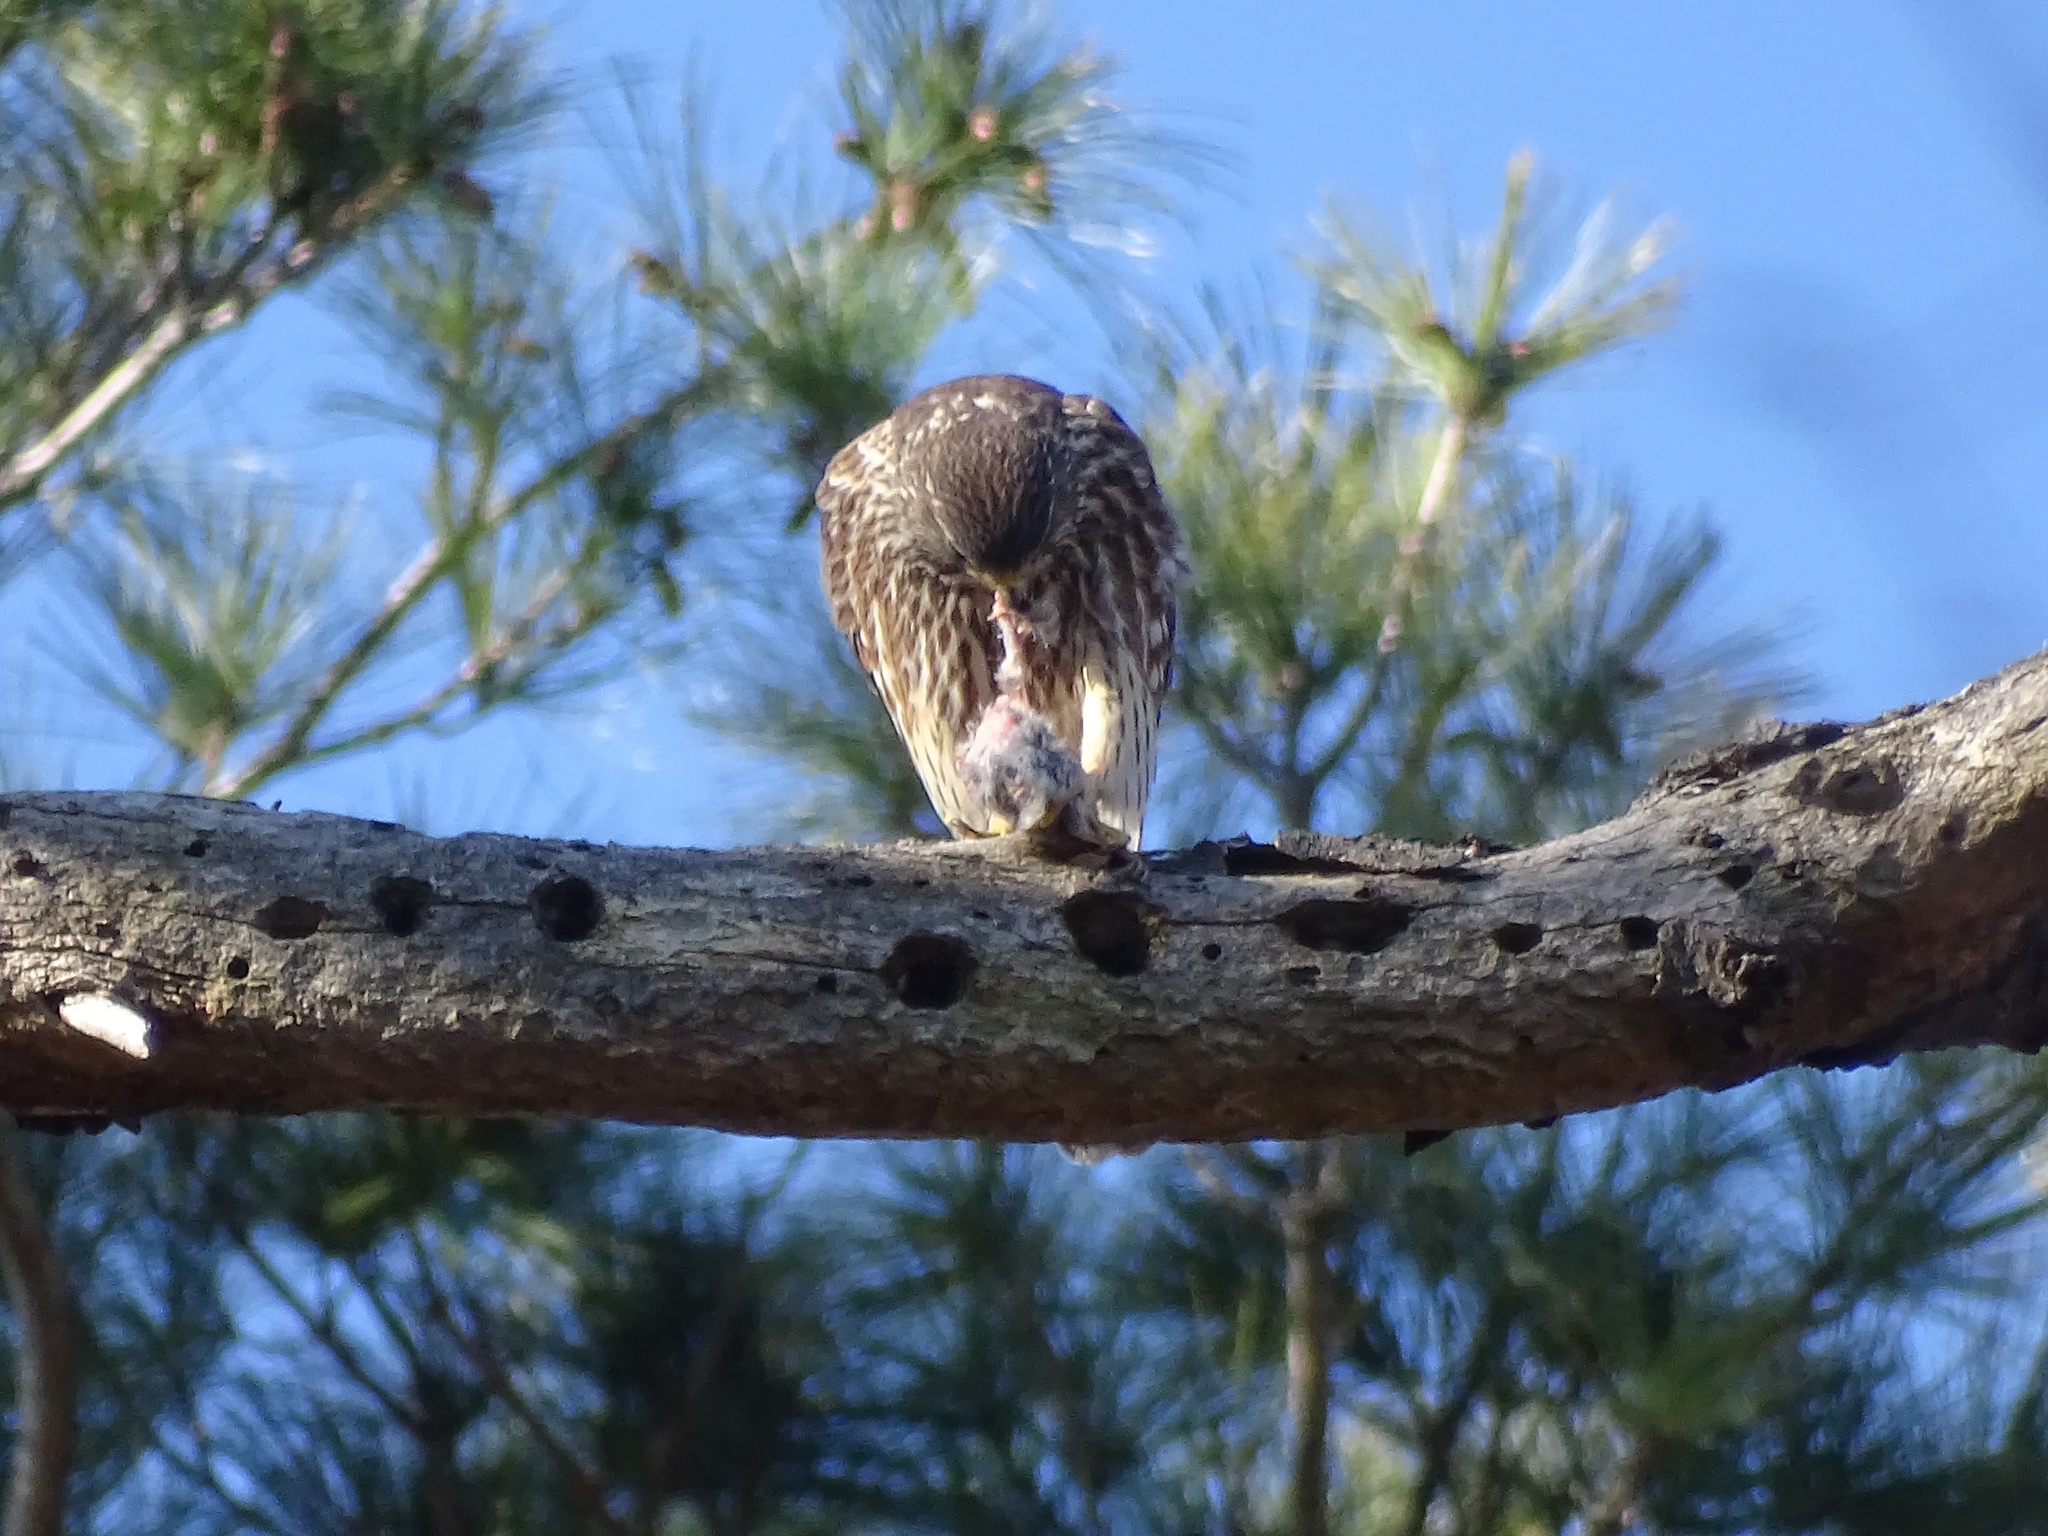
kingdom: Animalia
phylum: Chordata
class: Aves
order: Falconiformes
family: Falconidae
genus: Falco
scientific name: Falco columbarius
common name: Merlin
